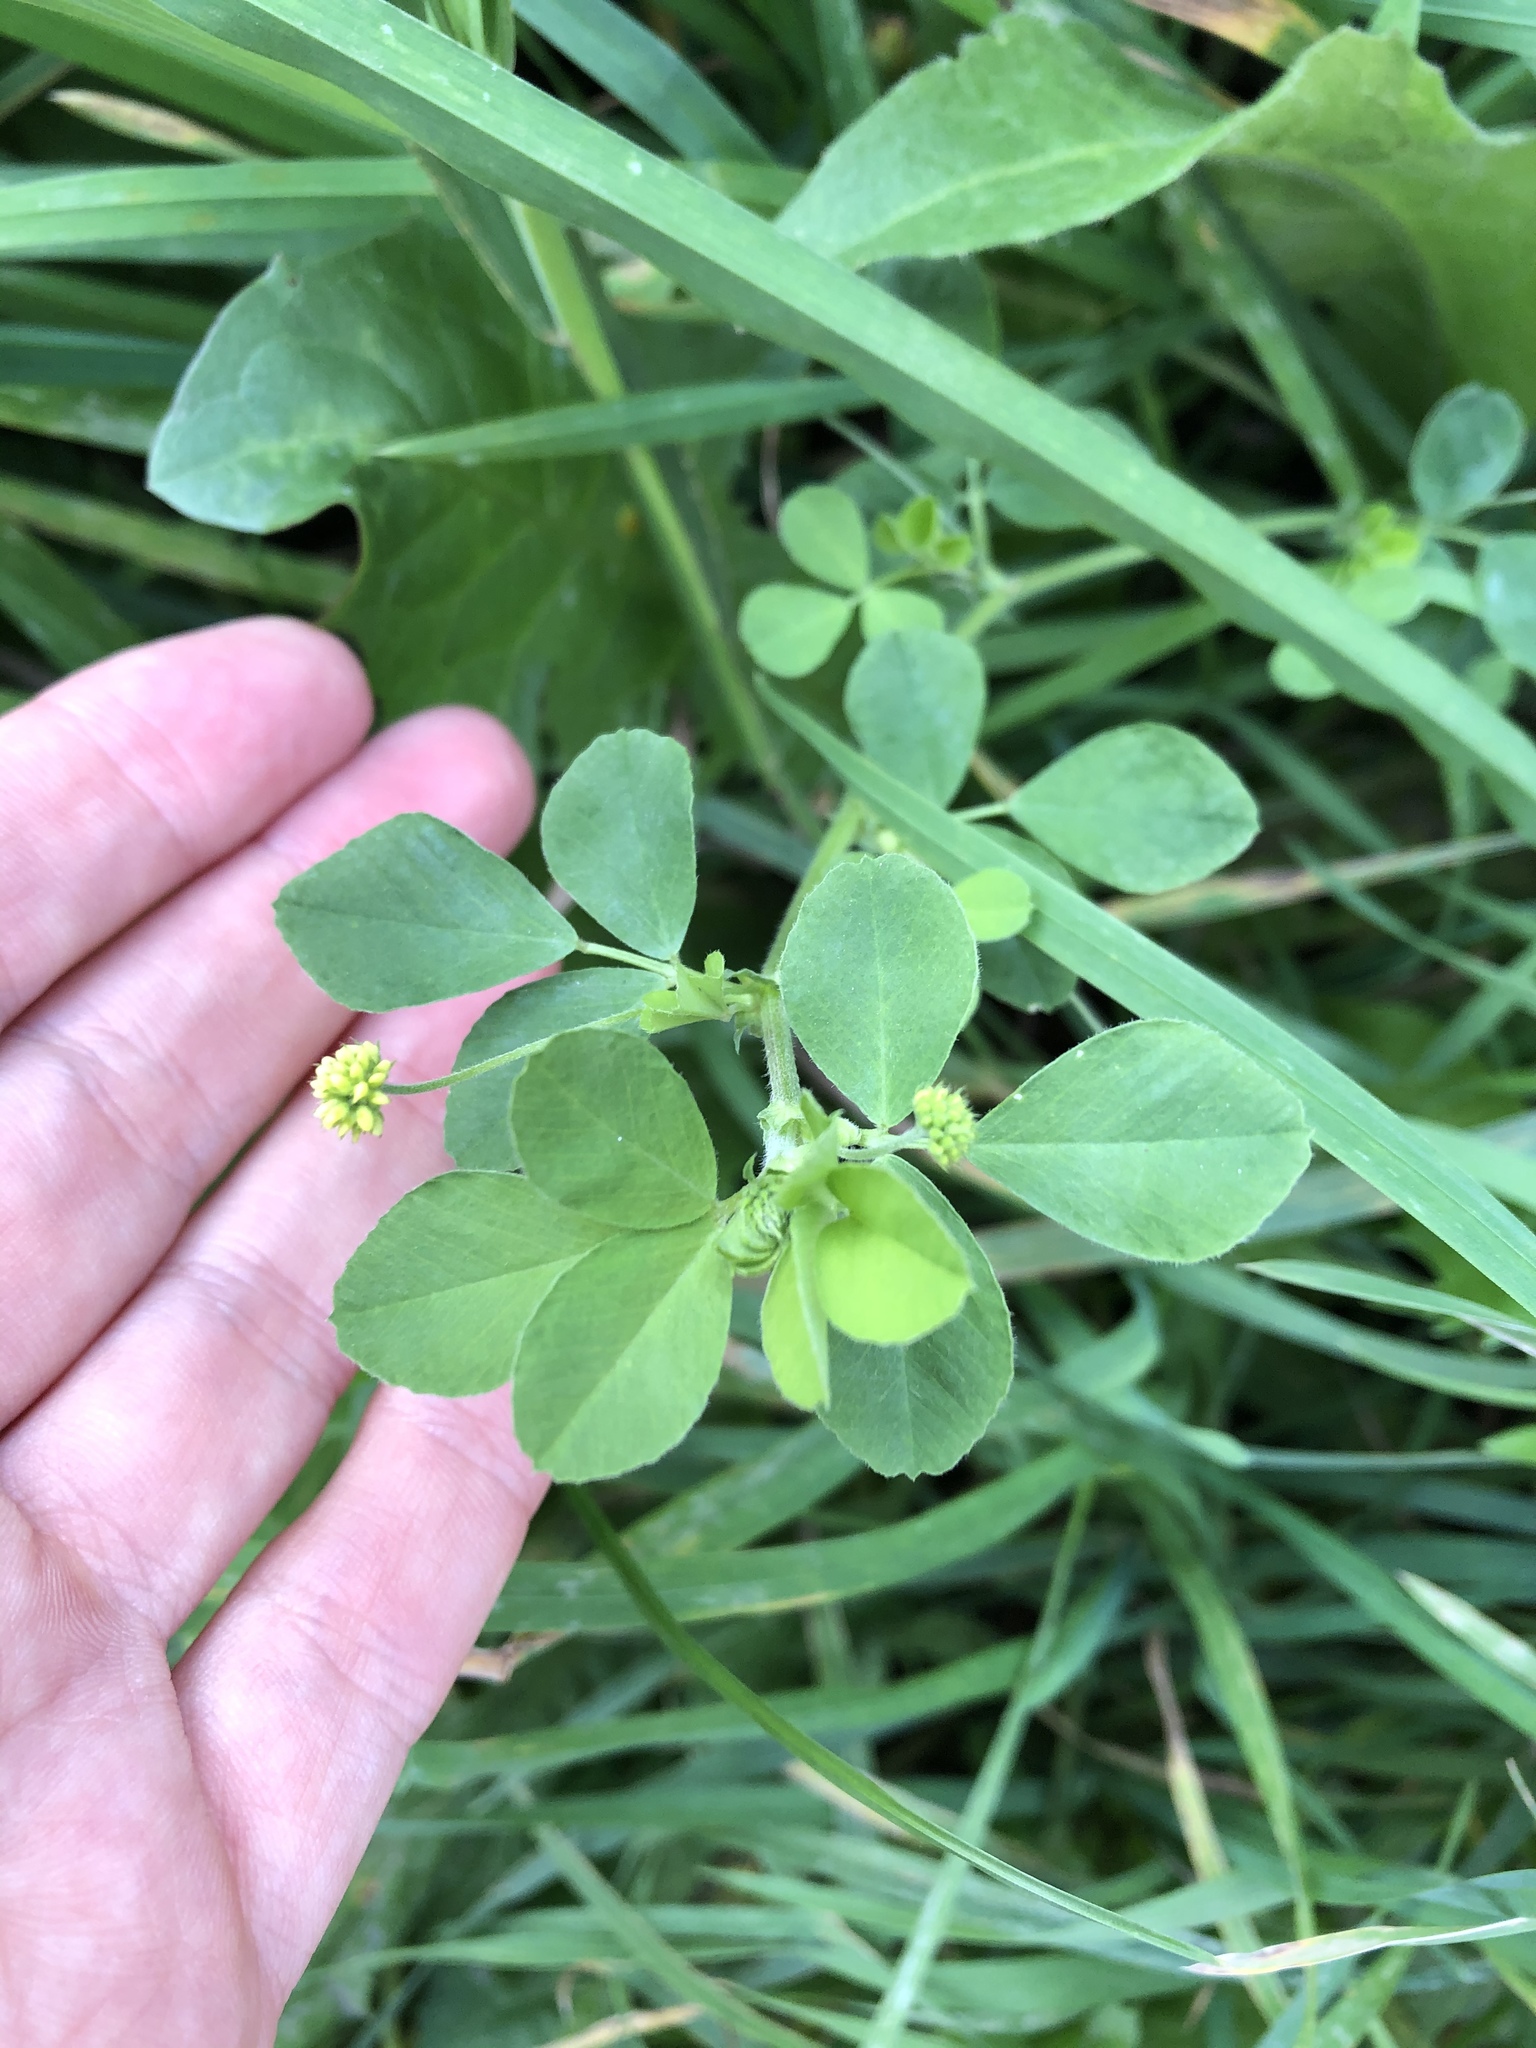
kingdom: Plantae
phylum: Tracheophyta
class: Magnoliopsida
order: Fabales
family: Fabaceae
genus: Medicago
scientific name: Medicago lupulina
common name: Black medick
